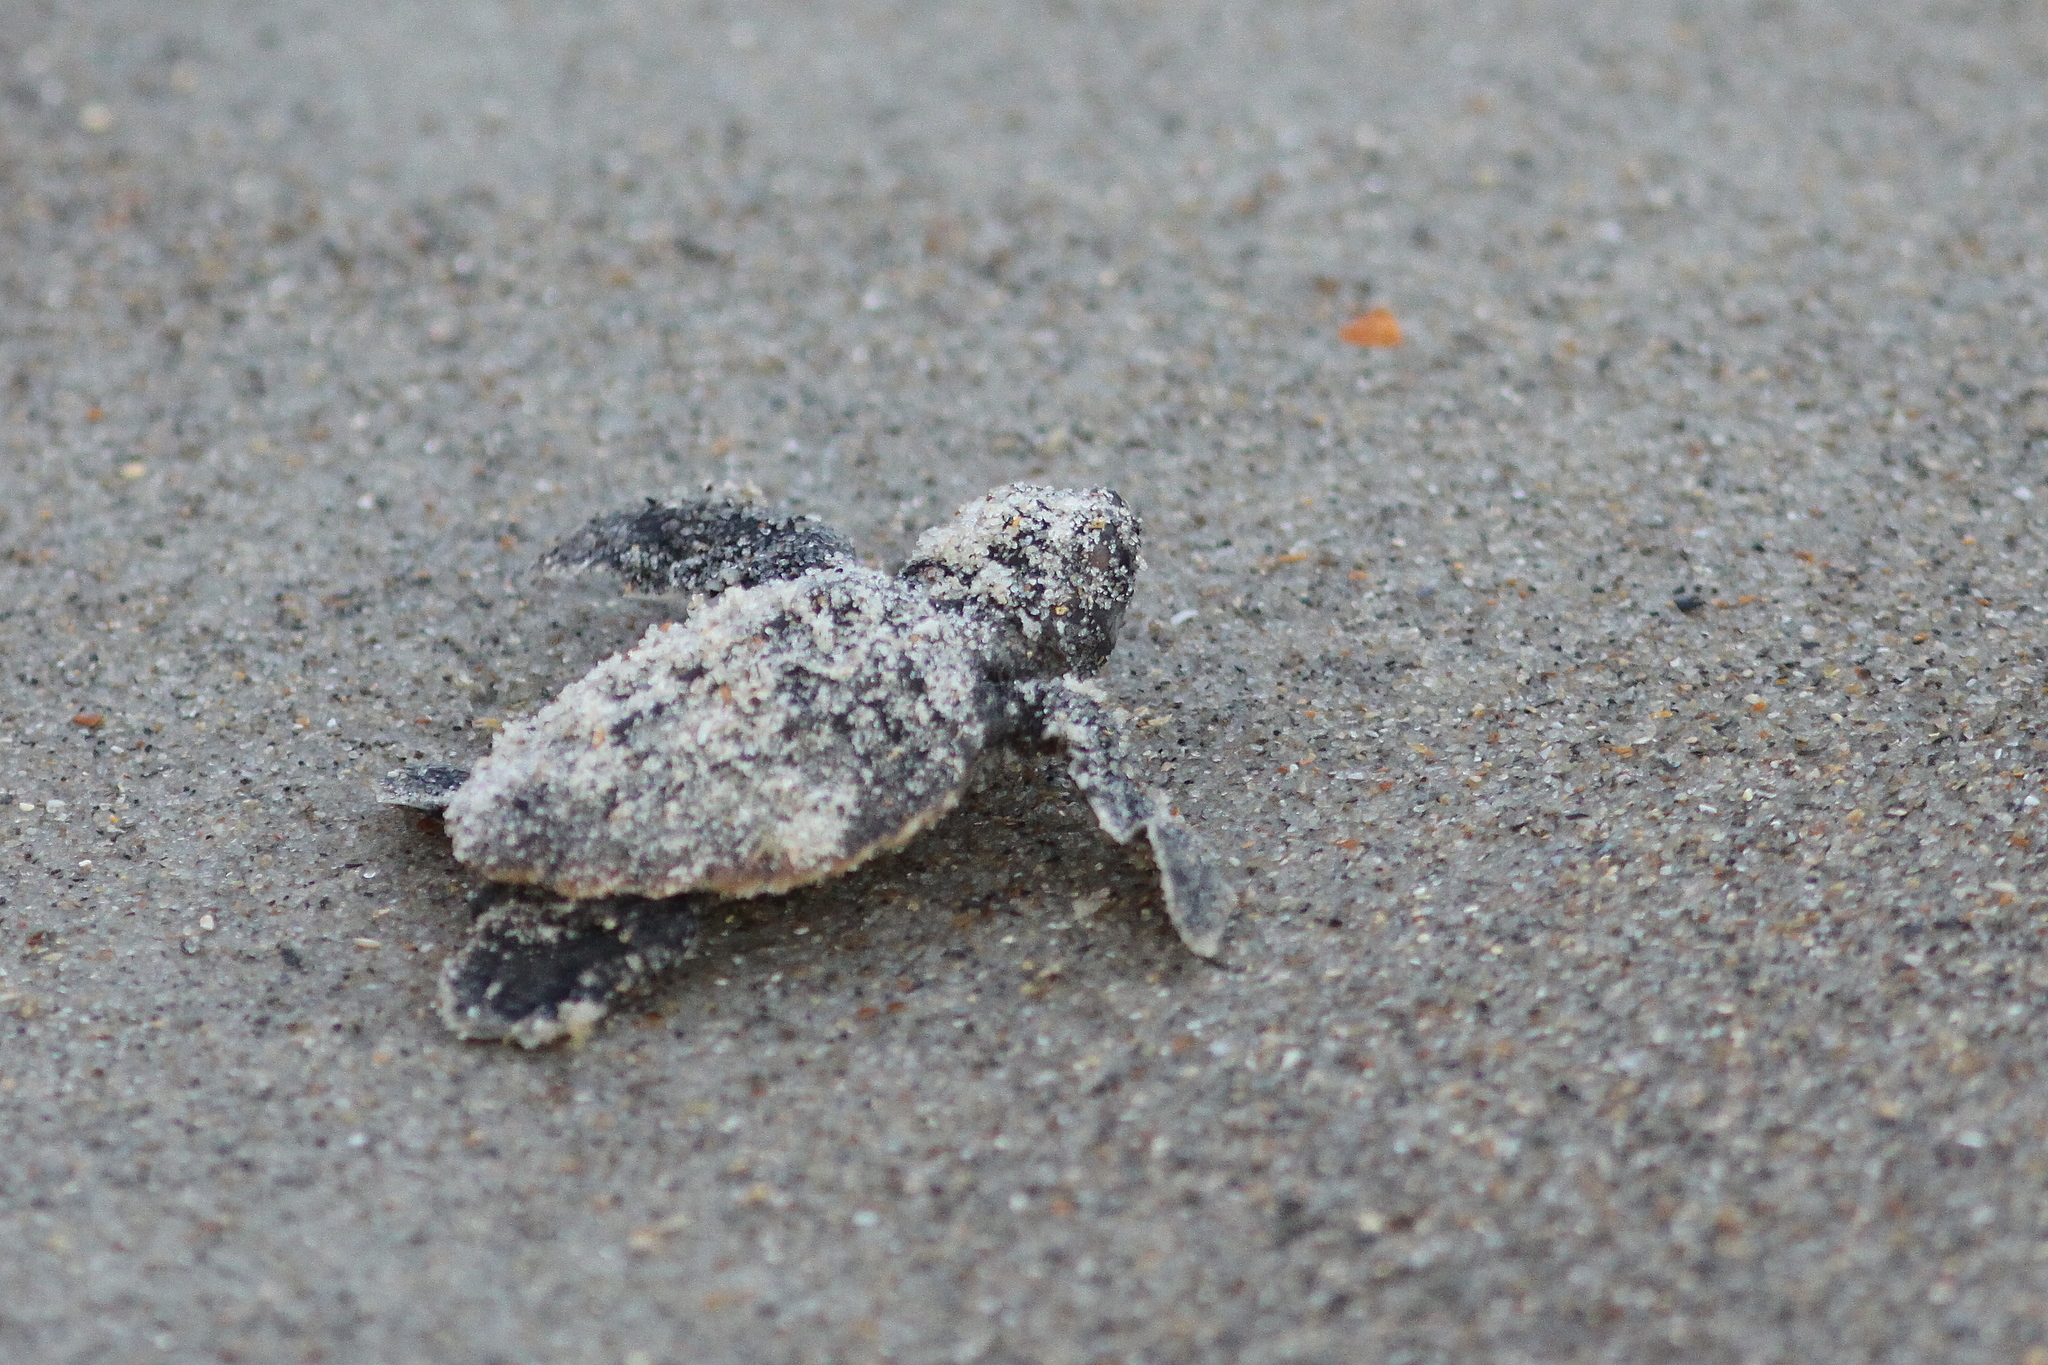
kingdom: Animalia
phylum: Chordata
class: Testudines
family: Cheloniidae
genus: Caretta
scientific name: Caretta caretta
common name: Loggerhead sea turtle
